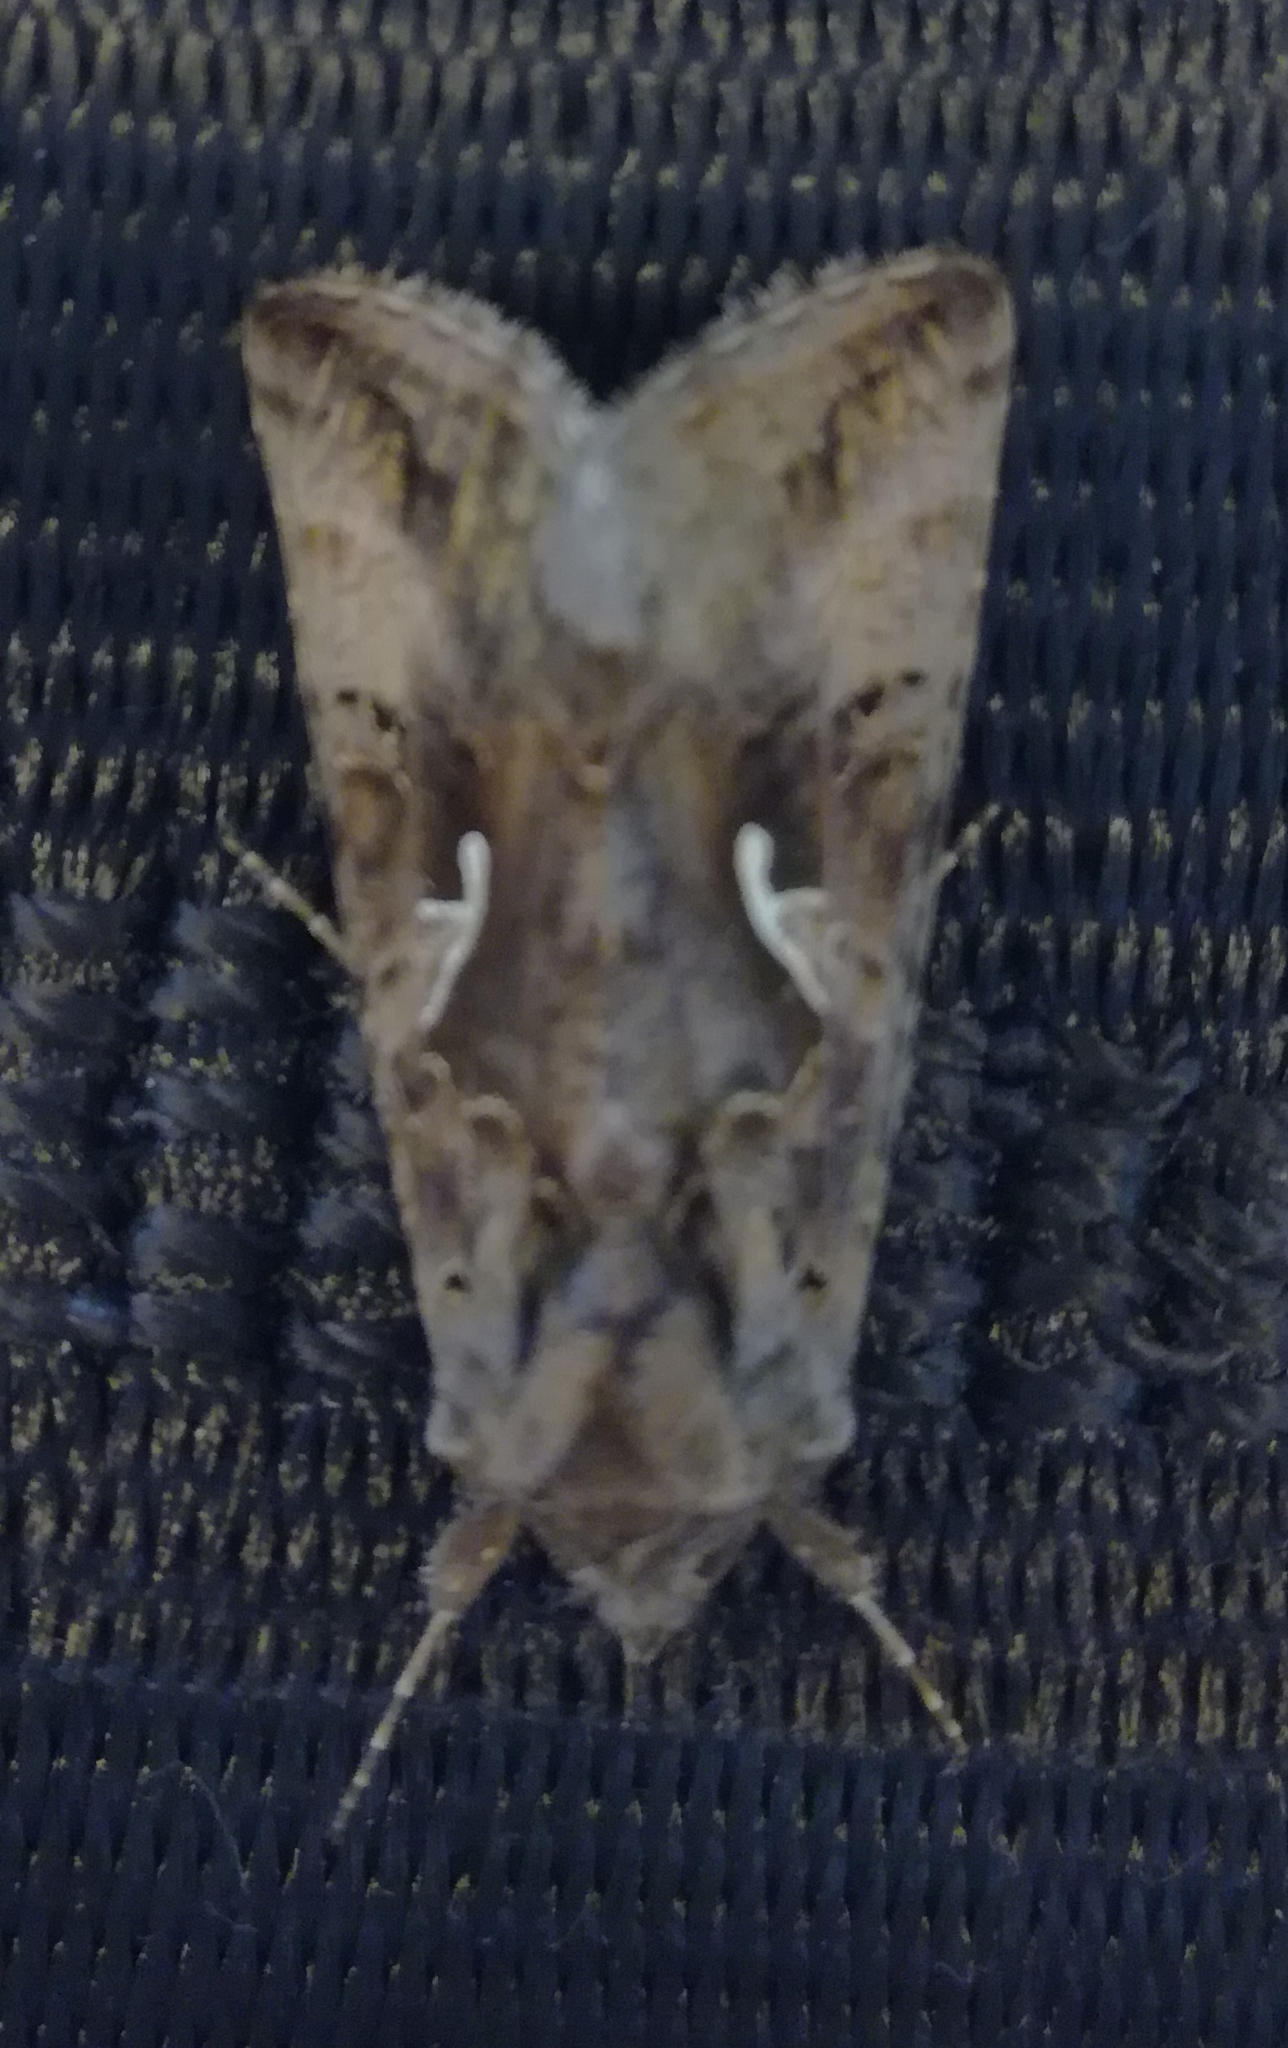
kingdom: Animalia
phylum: Arthropoda
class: Insecta
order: Lepidoptera
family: Noctuidae
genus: Autographa
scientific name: Autographa gamma
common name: Silver y
